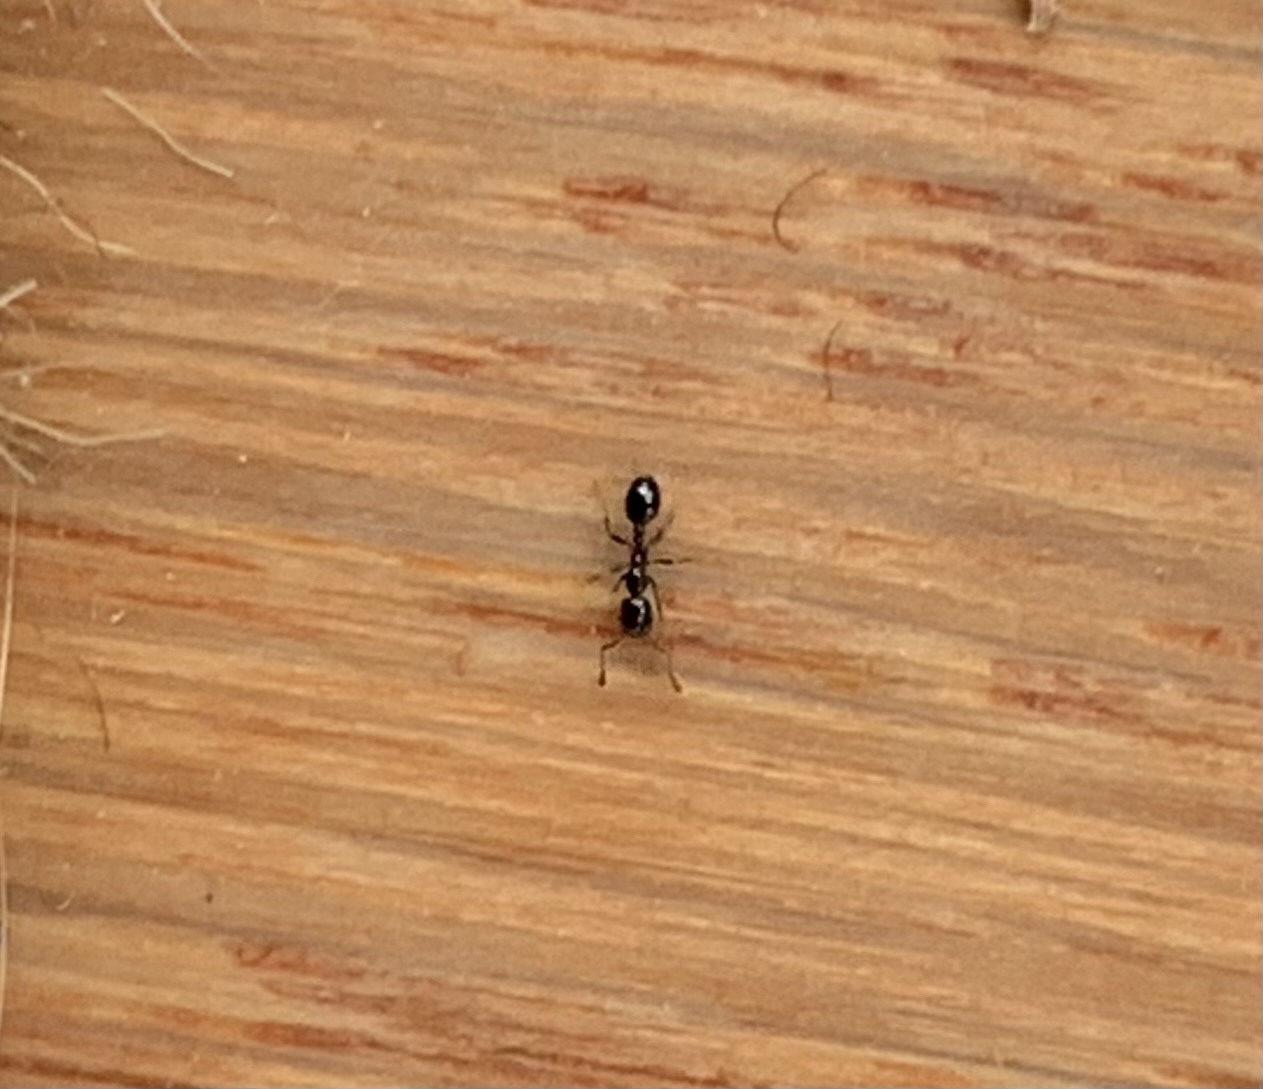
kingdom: Animalia
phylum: Arthropoda
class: Insecta
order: Hymenoptera
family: Formicidae
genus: Monomorium
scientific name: Monomorium minimum
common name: Little black ant
